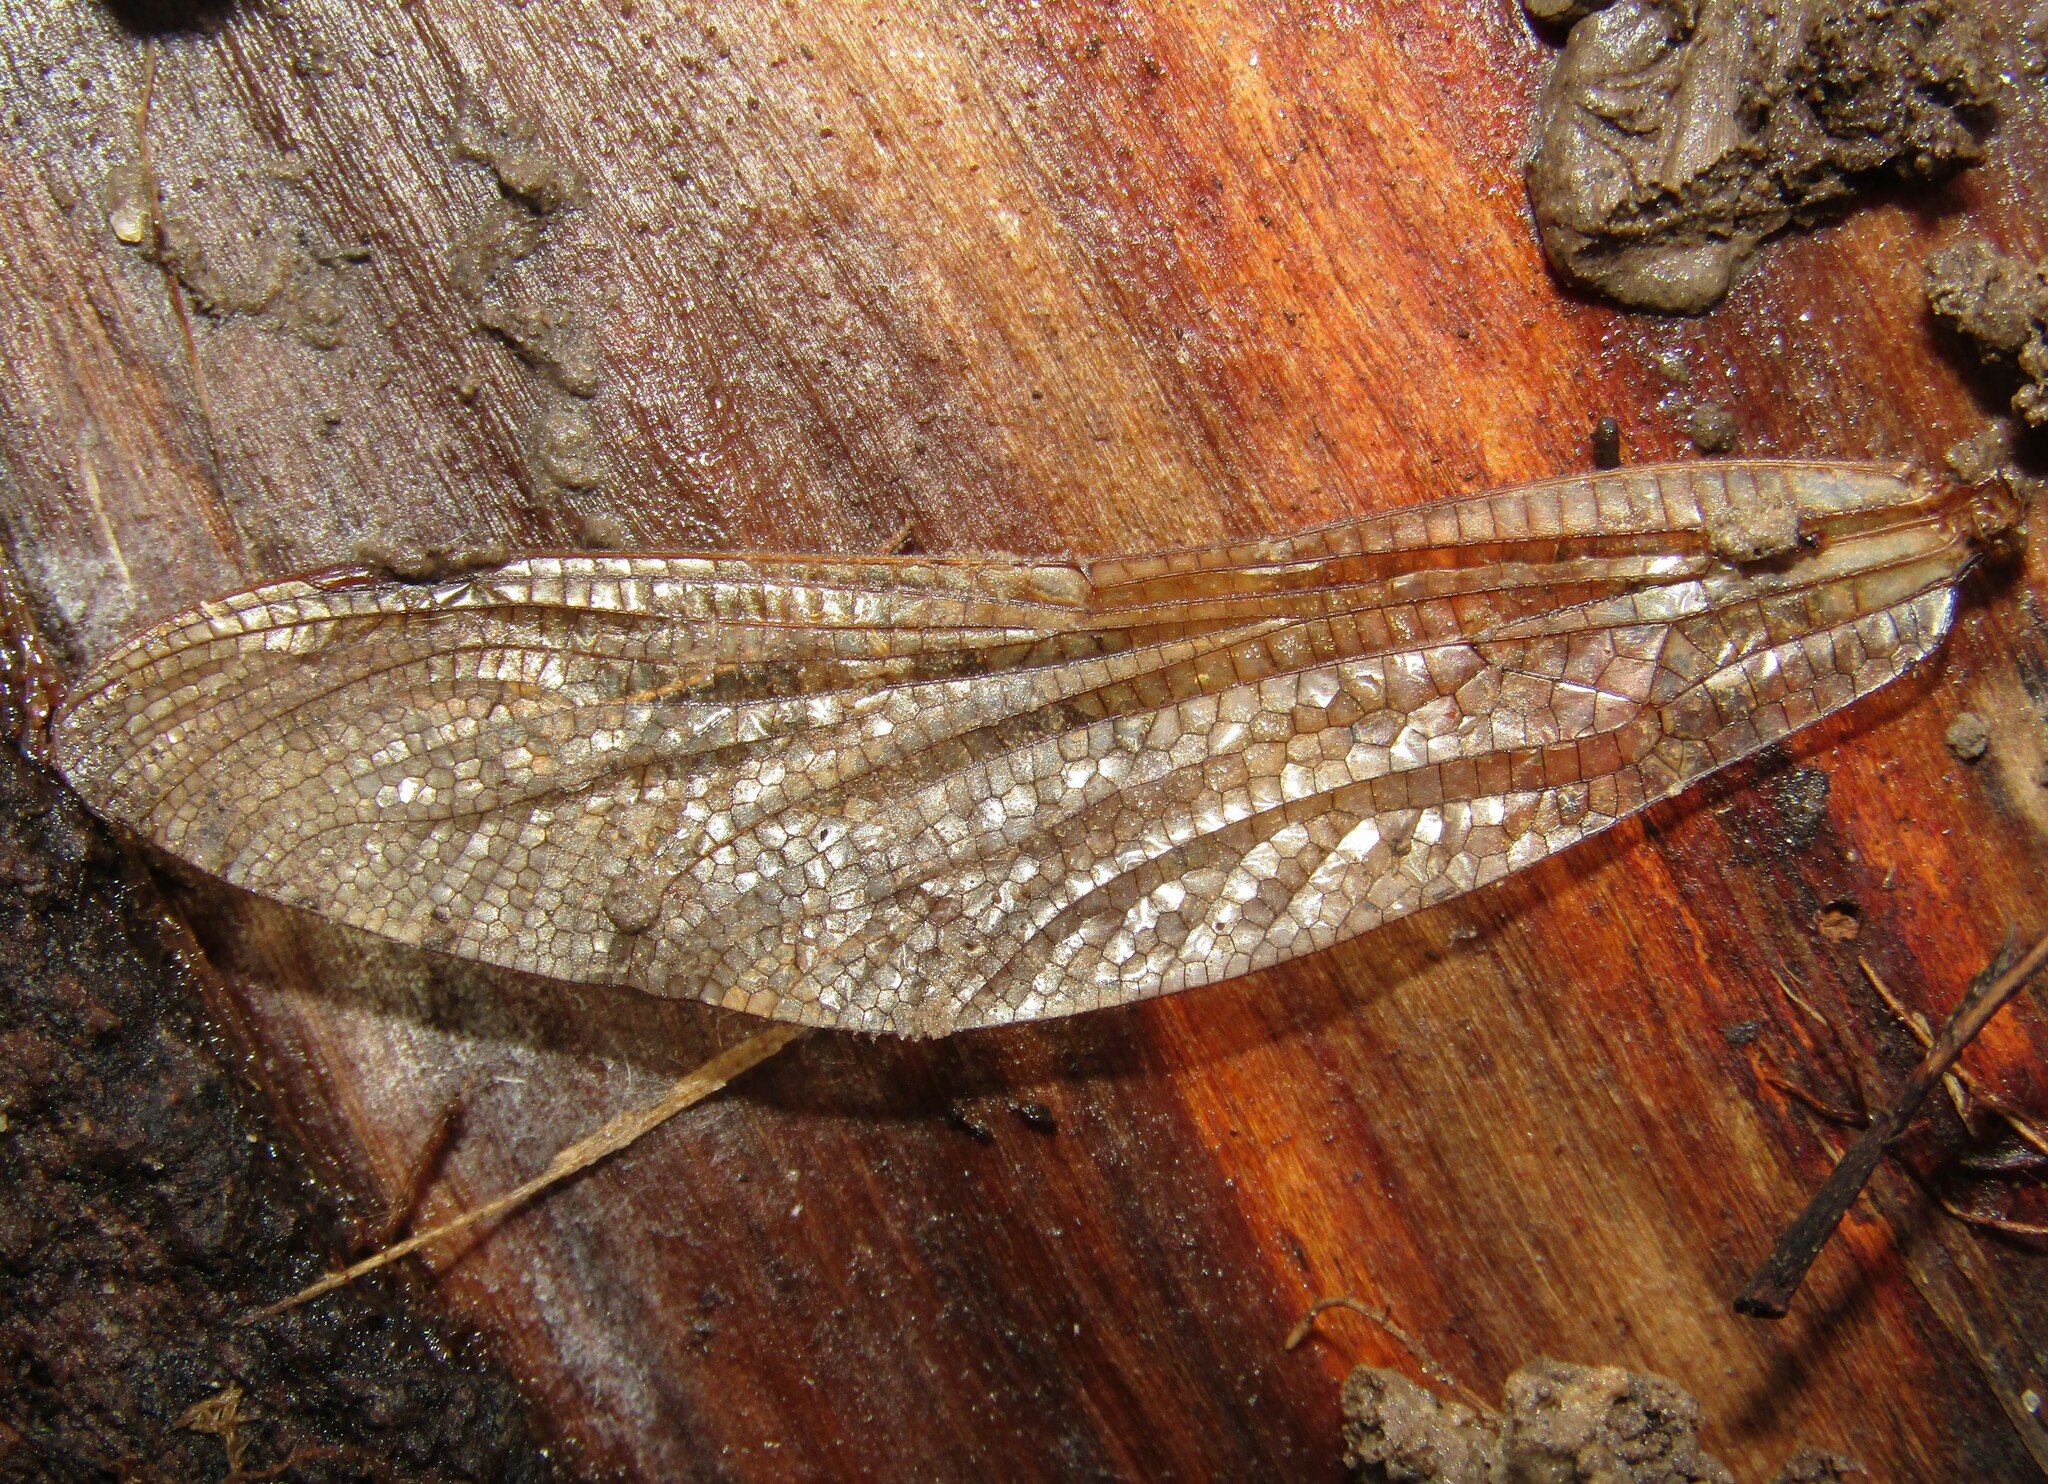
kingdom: Animalia
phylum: Arthropoda
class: Insecta
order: Odonata
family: Aeshnidae
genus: Aeshna
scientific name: Aeshna grandis
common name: Brown hawker
